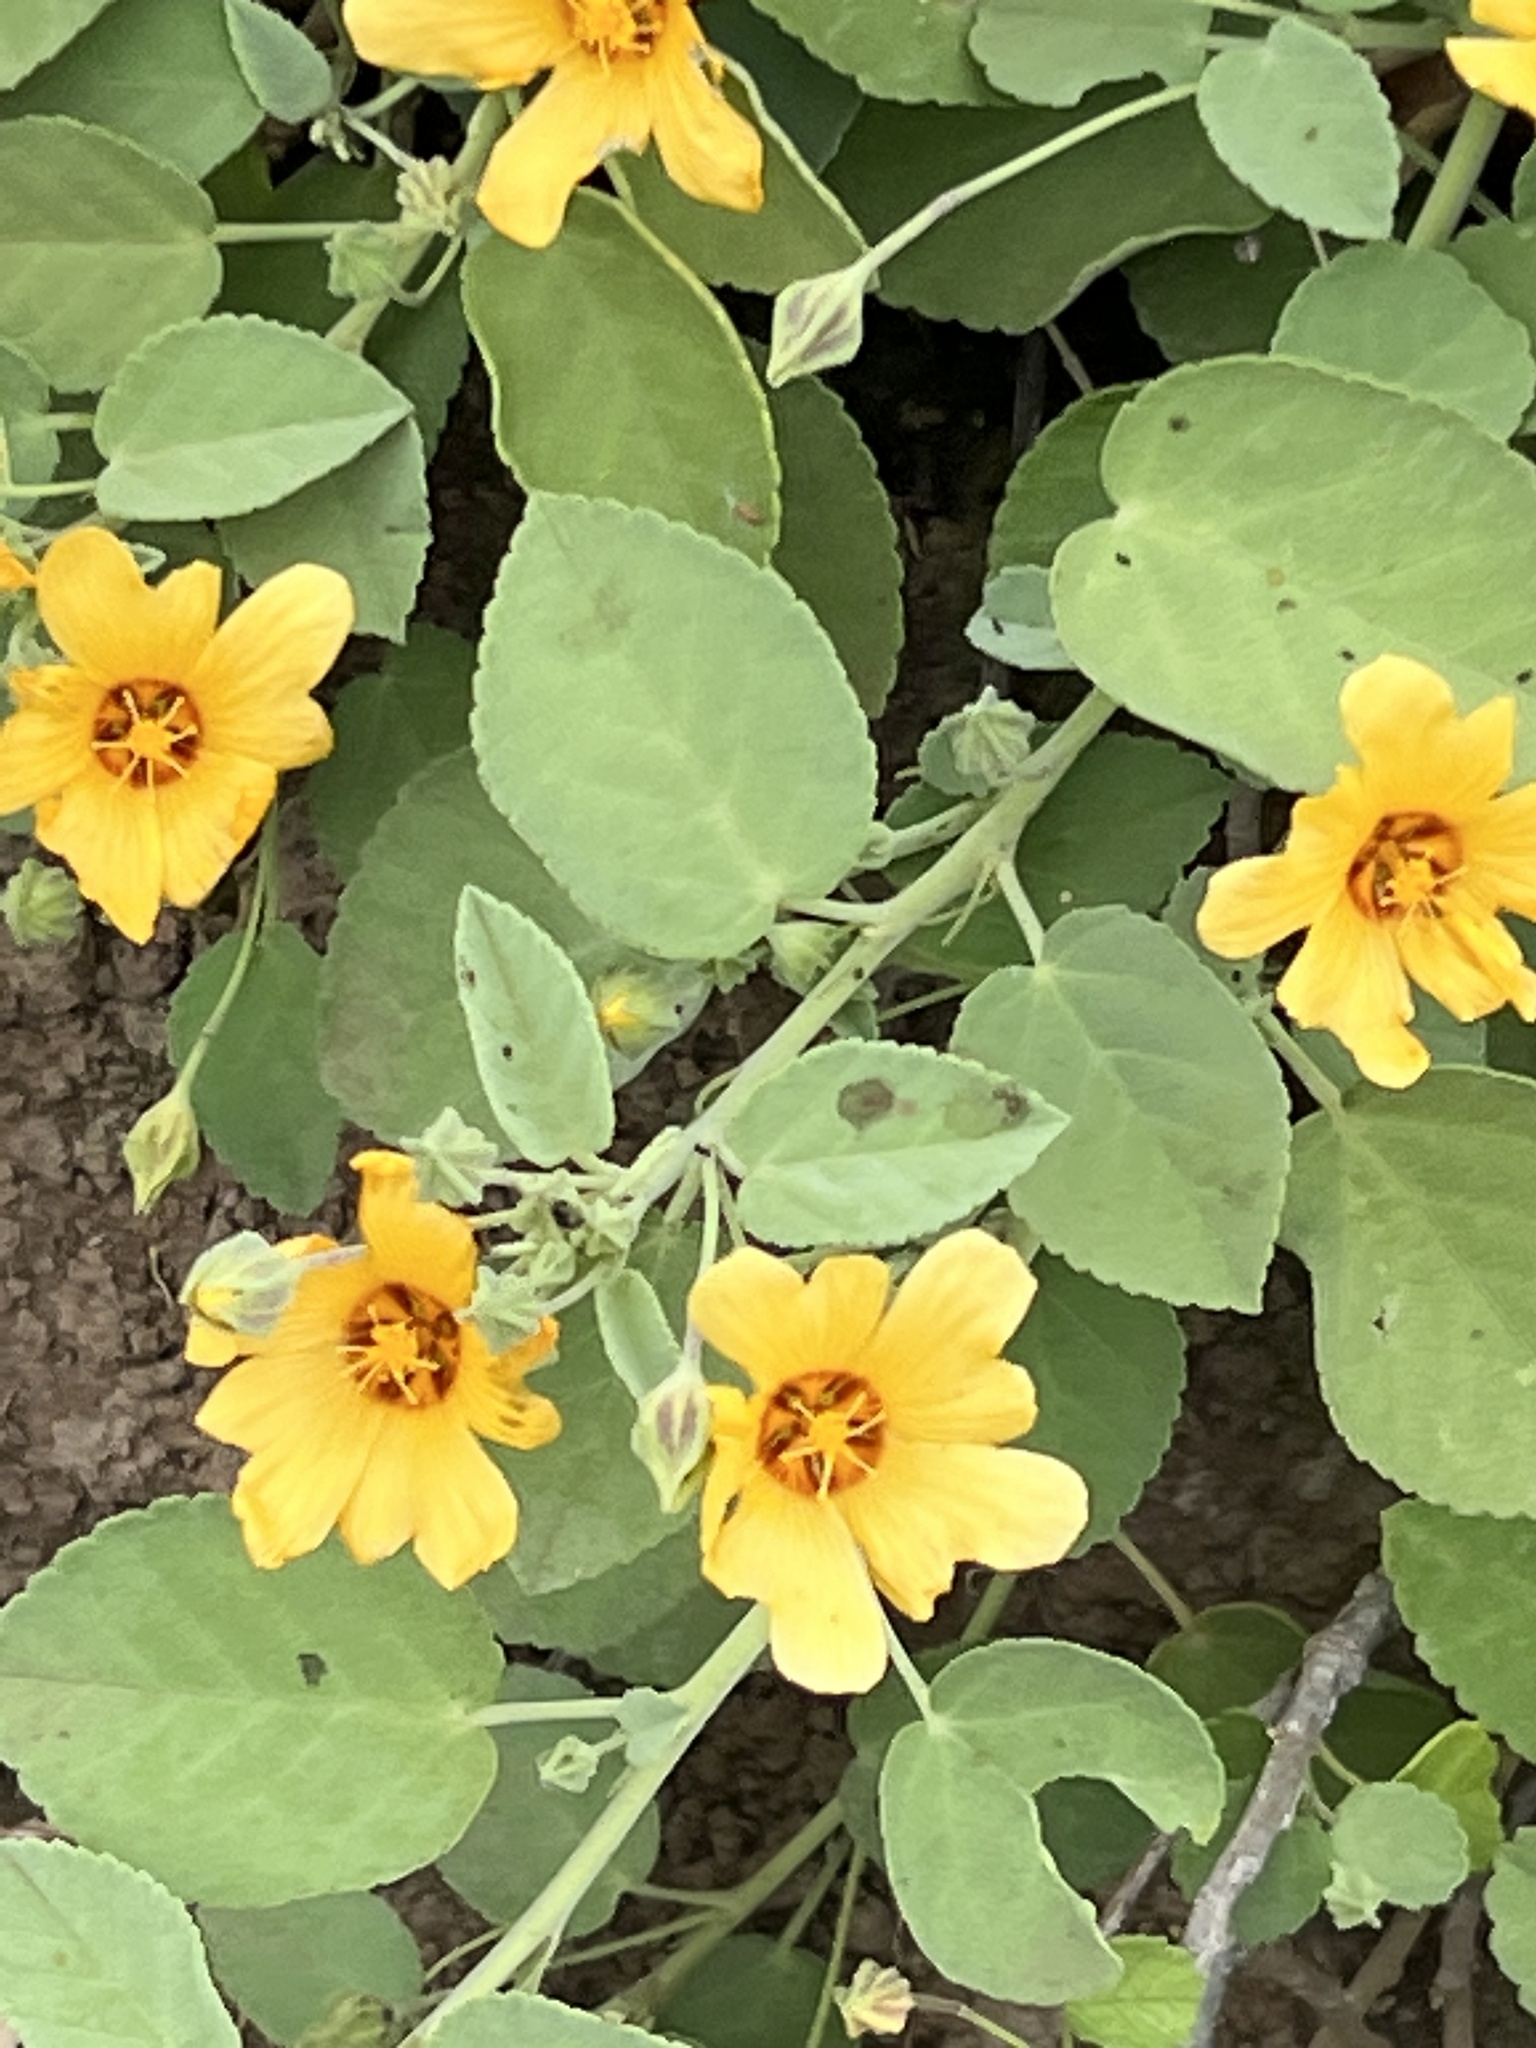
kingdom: Plantae
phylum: Tracheophyta
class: Magnoliopsida
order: Malvales
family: Malvaceae
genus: Sida
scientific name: Sida fallax
